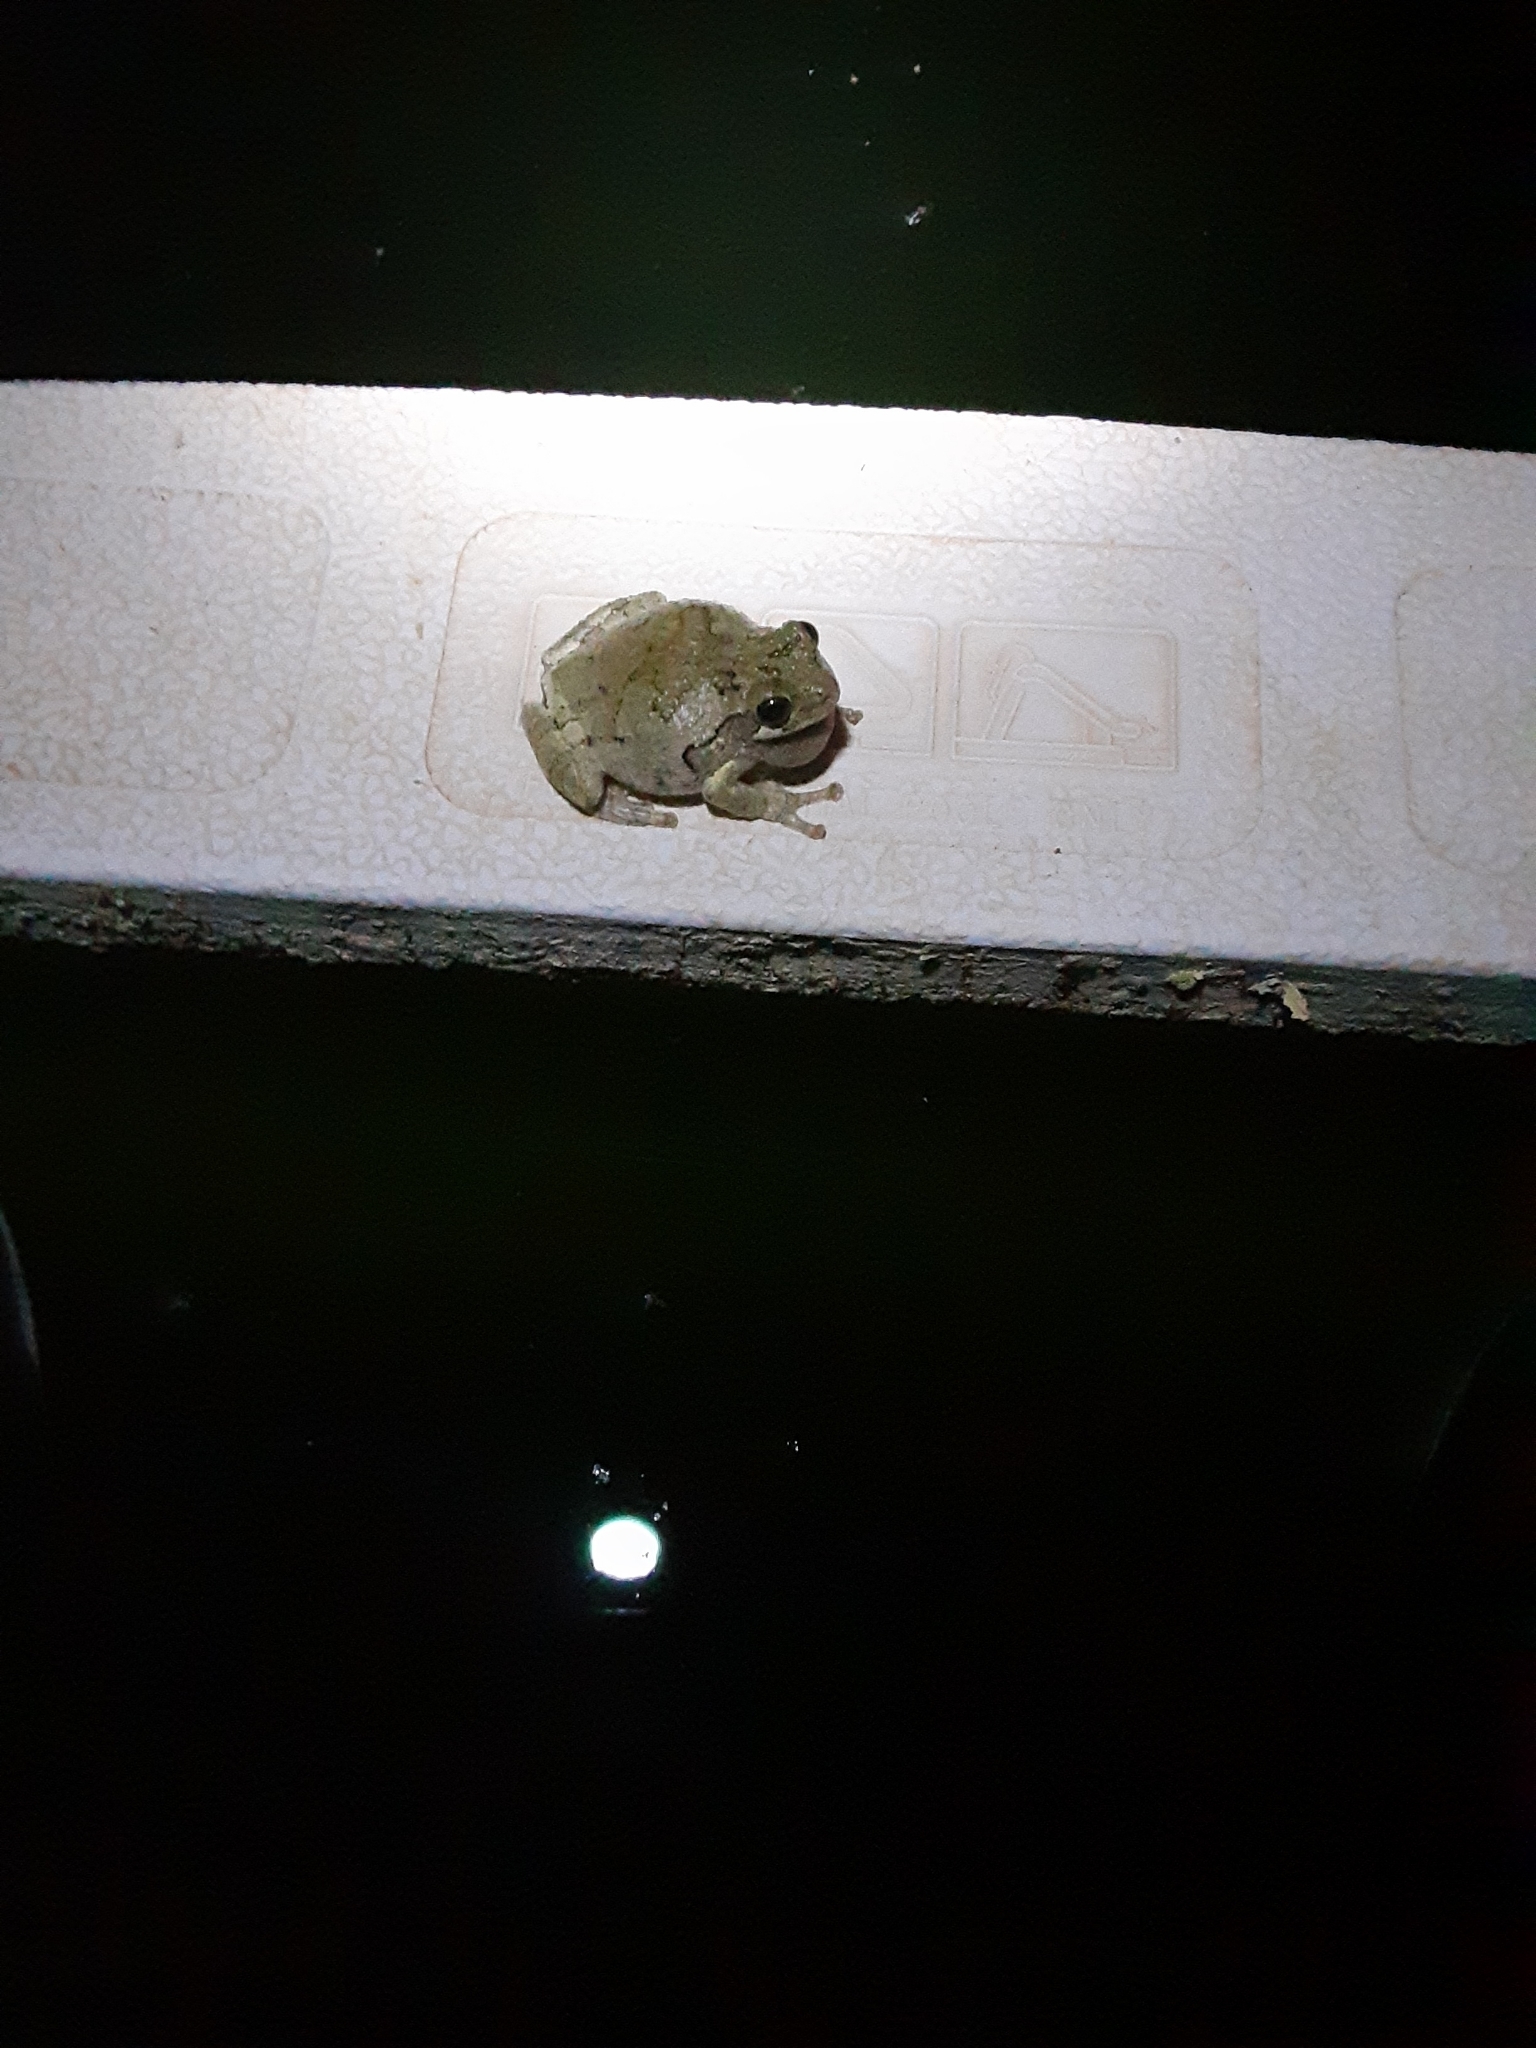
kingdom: Animalia
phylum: Chordata
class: Amphibia
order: Anura
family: Hylidae
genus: Dryophytes
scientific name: Dryophytes chrysoscelis
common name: Cope's gray treefrog
